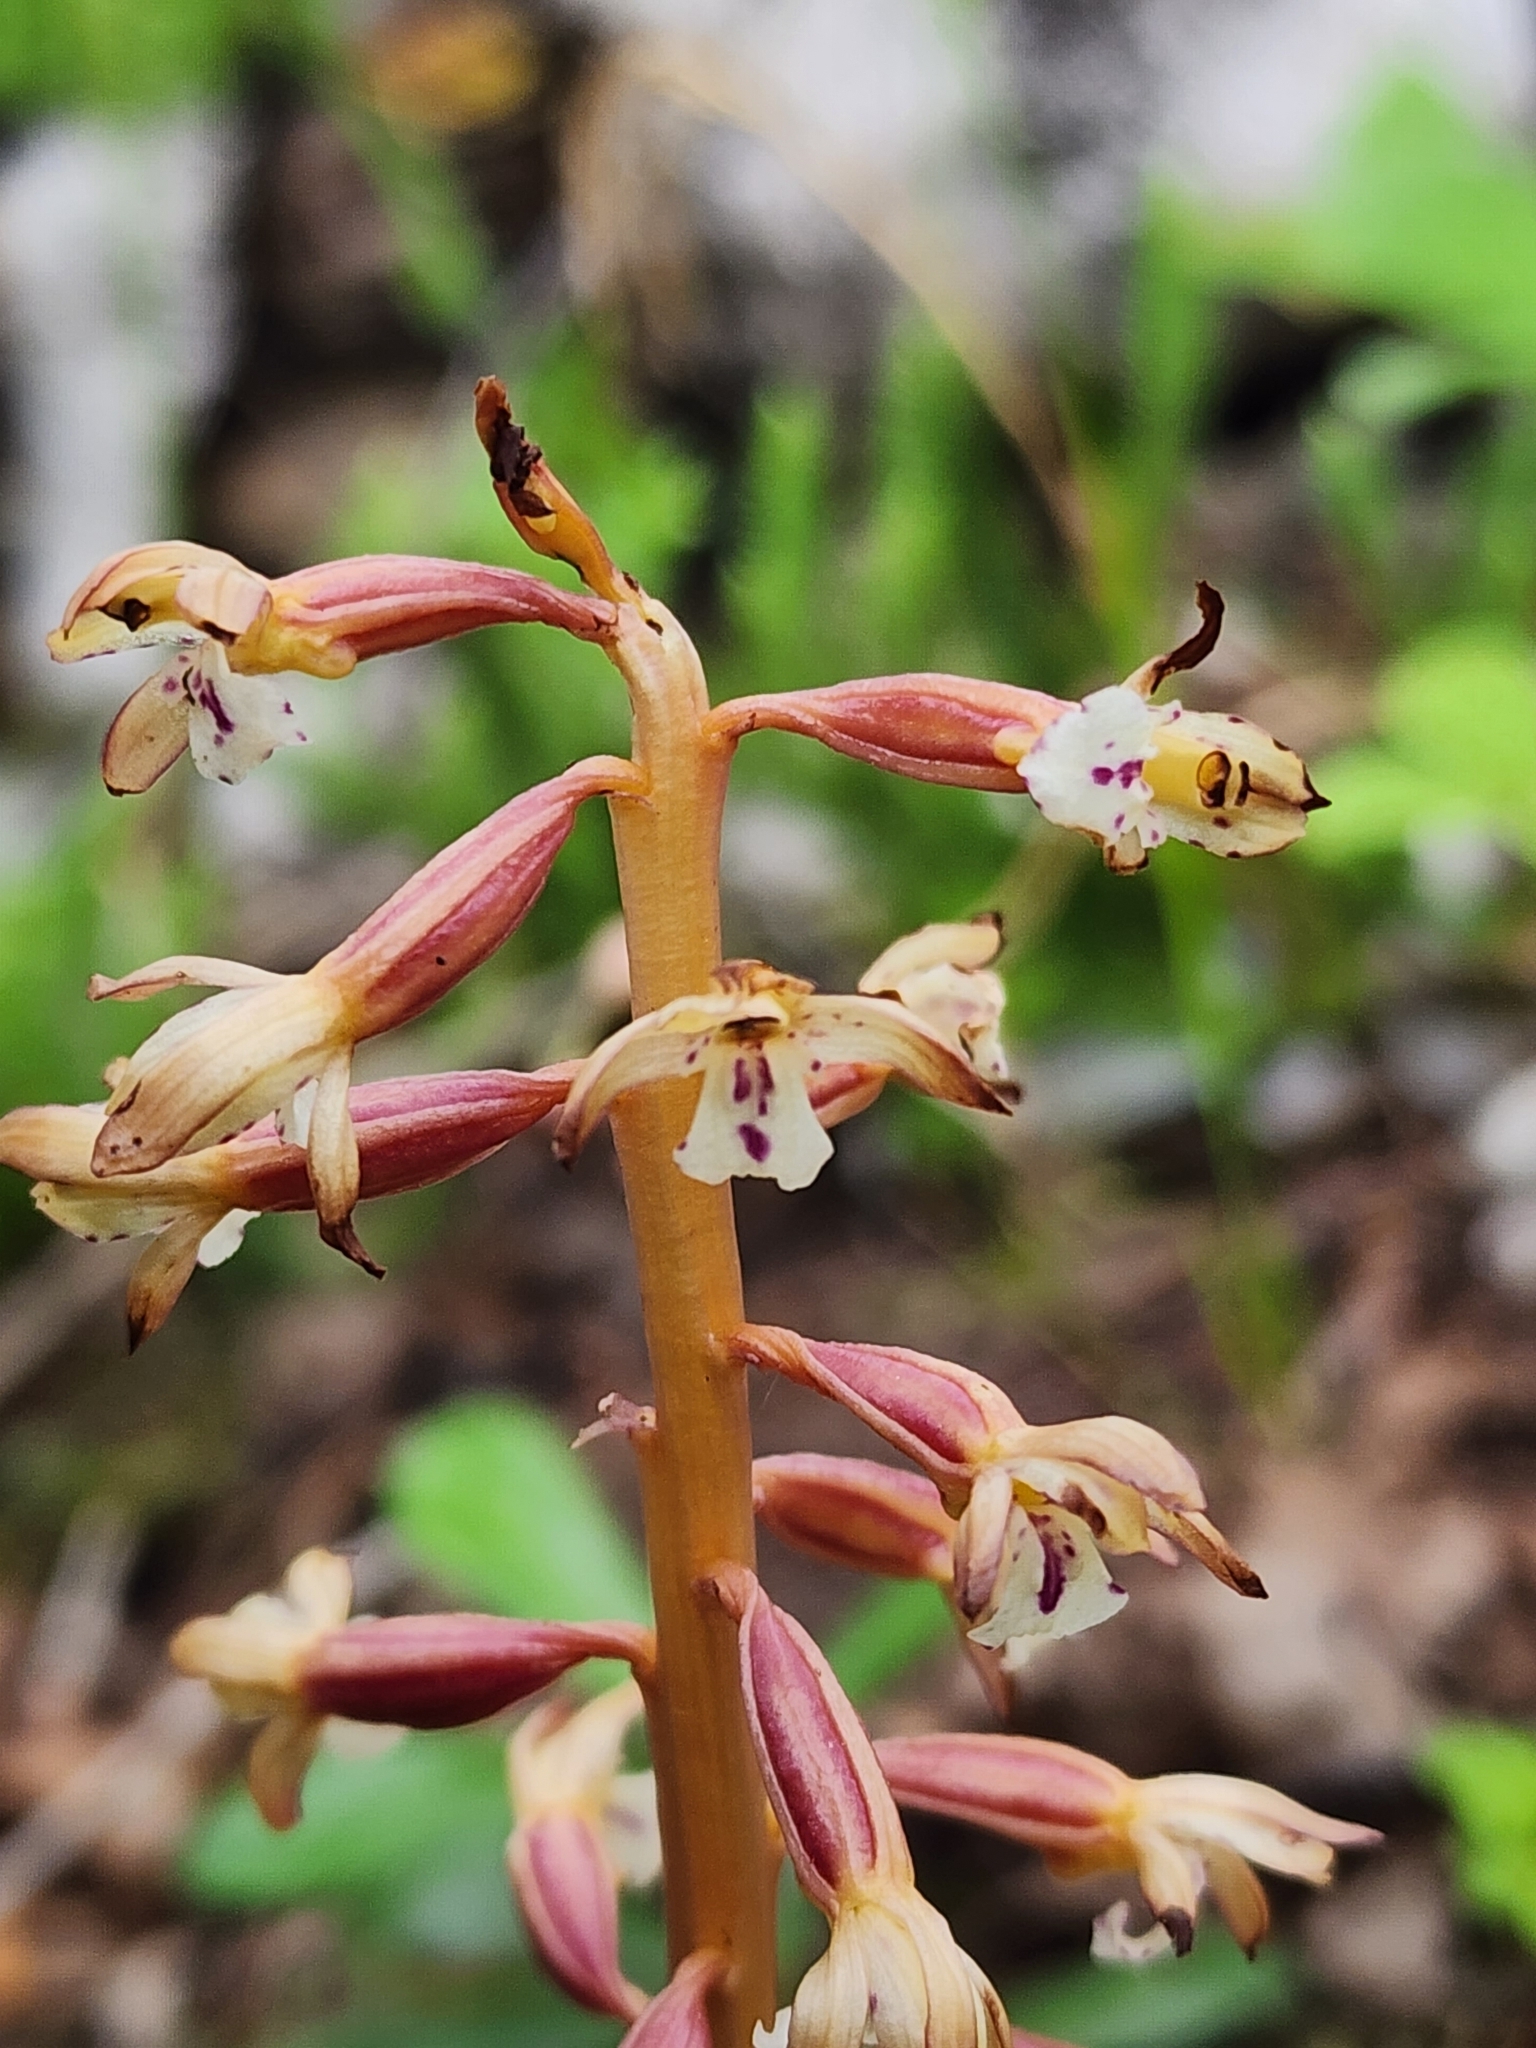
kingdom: Plantae
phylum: Tracheophyta
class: Liliopsida
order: Asparagales
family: Orchidaceae
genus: Corallorhiza
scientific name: Corallorhiza maculata
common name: Spotted coralroot
